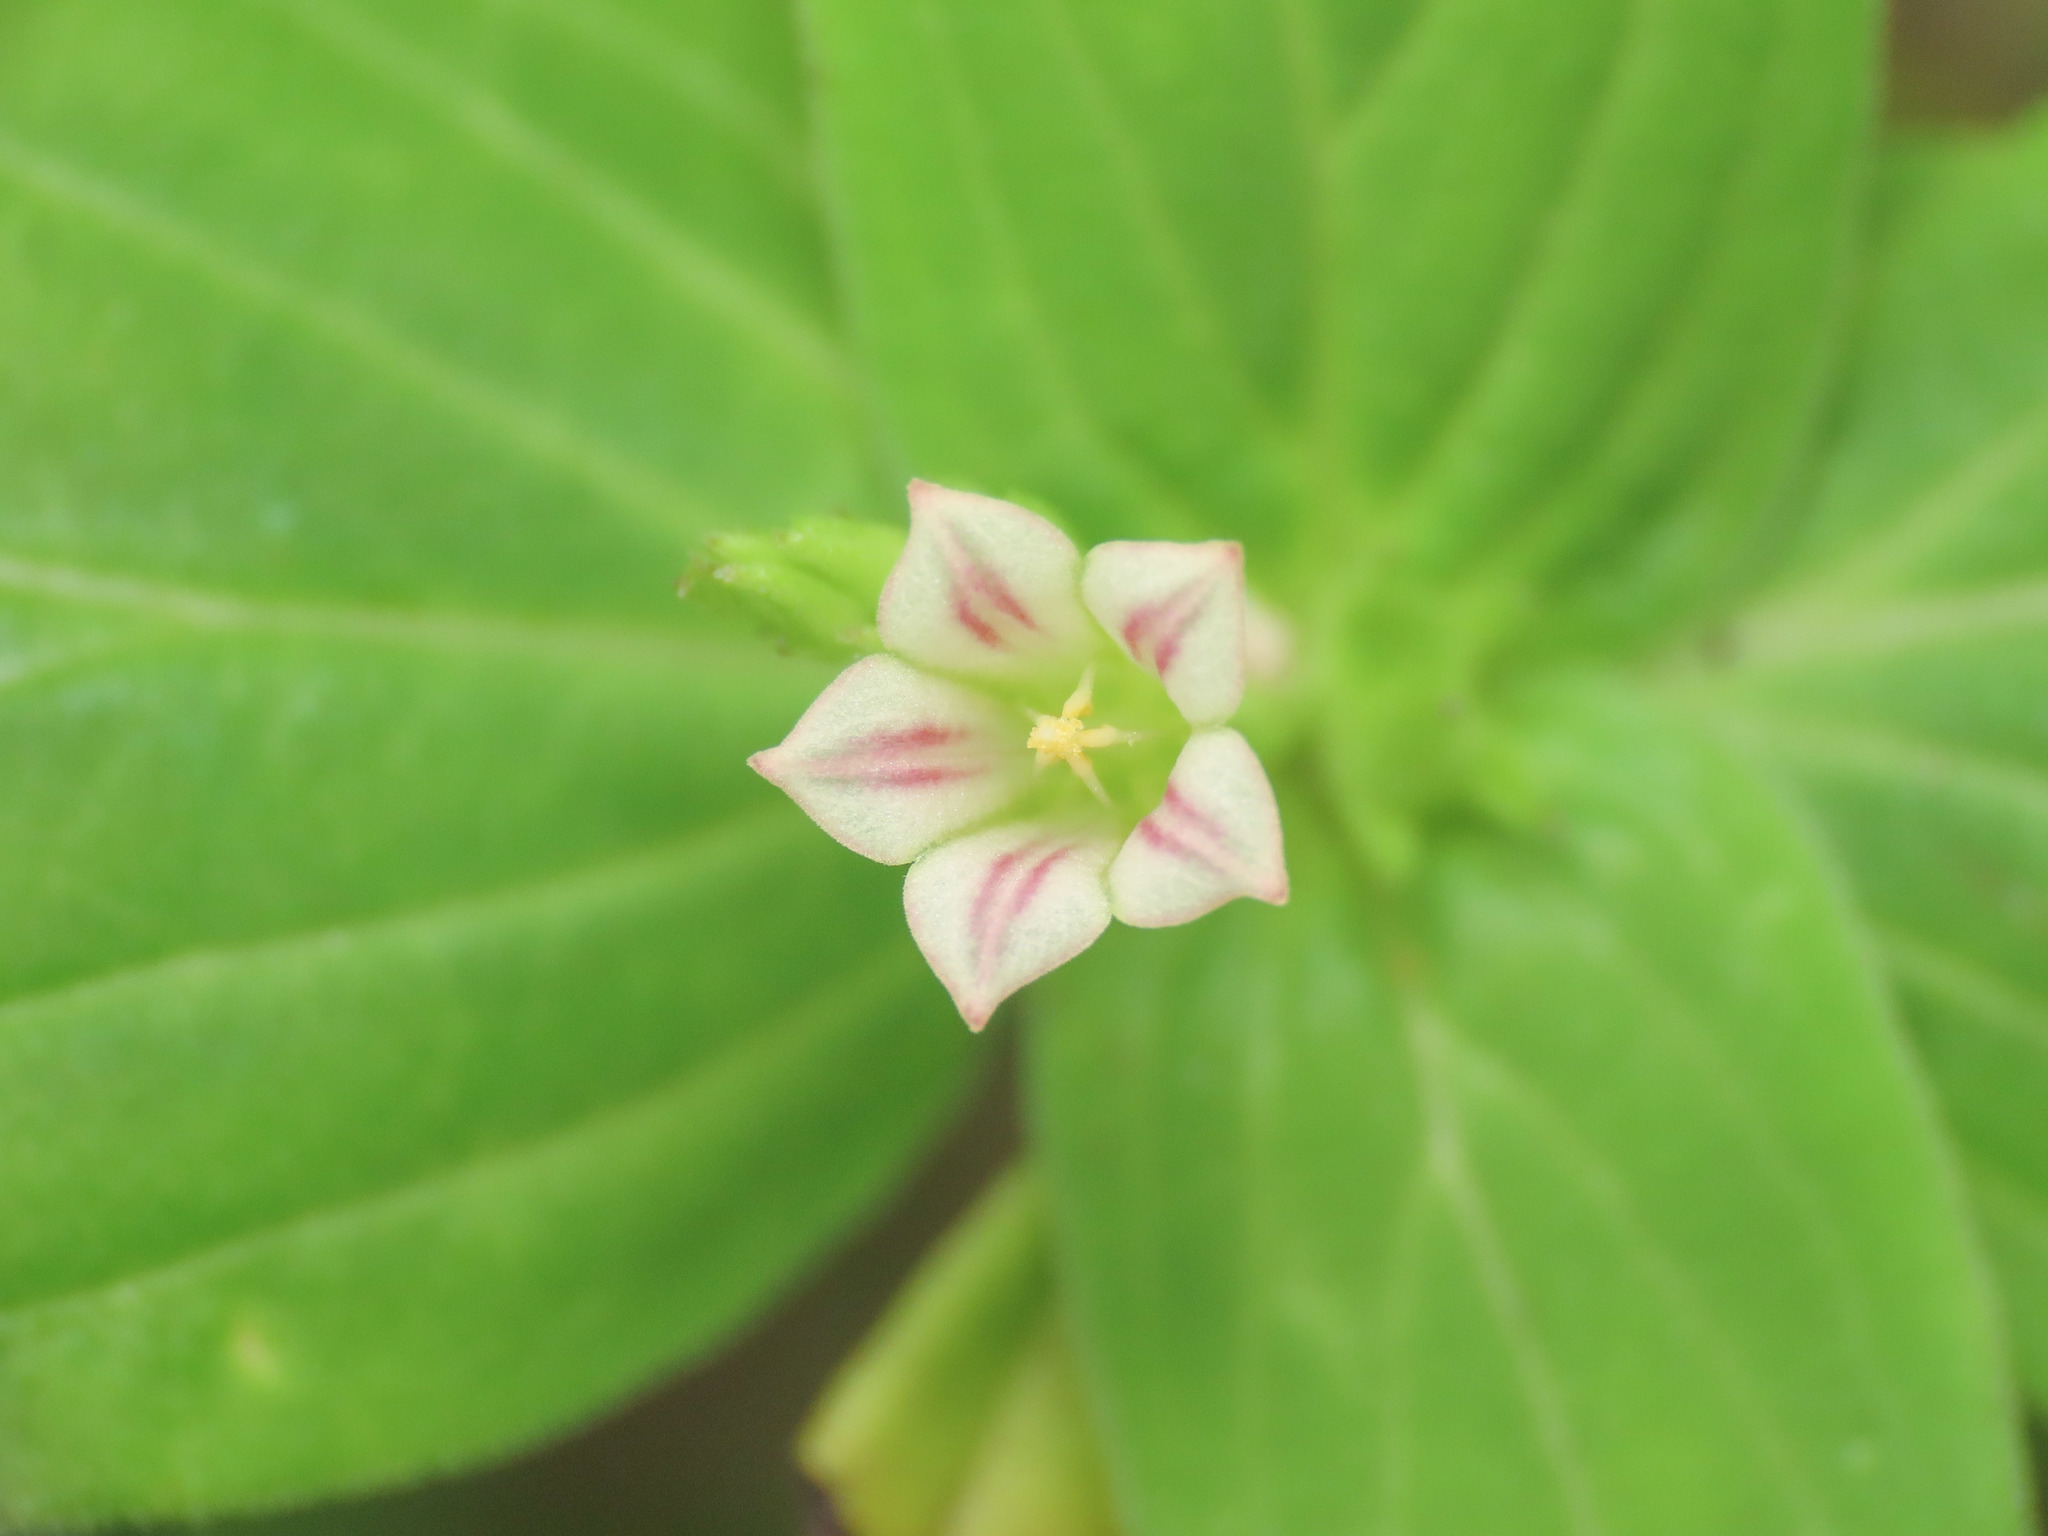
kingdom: Plantae
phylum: Tracheophyta
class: Magnoliopsida
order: Gentianales
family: Loganiaceae
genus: Spigelia
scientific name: Spigelia anthelmia
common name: West indian-pink
